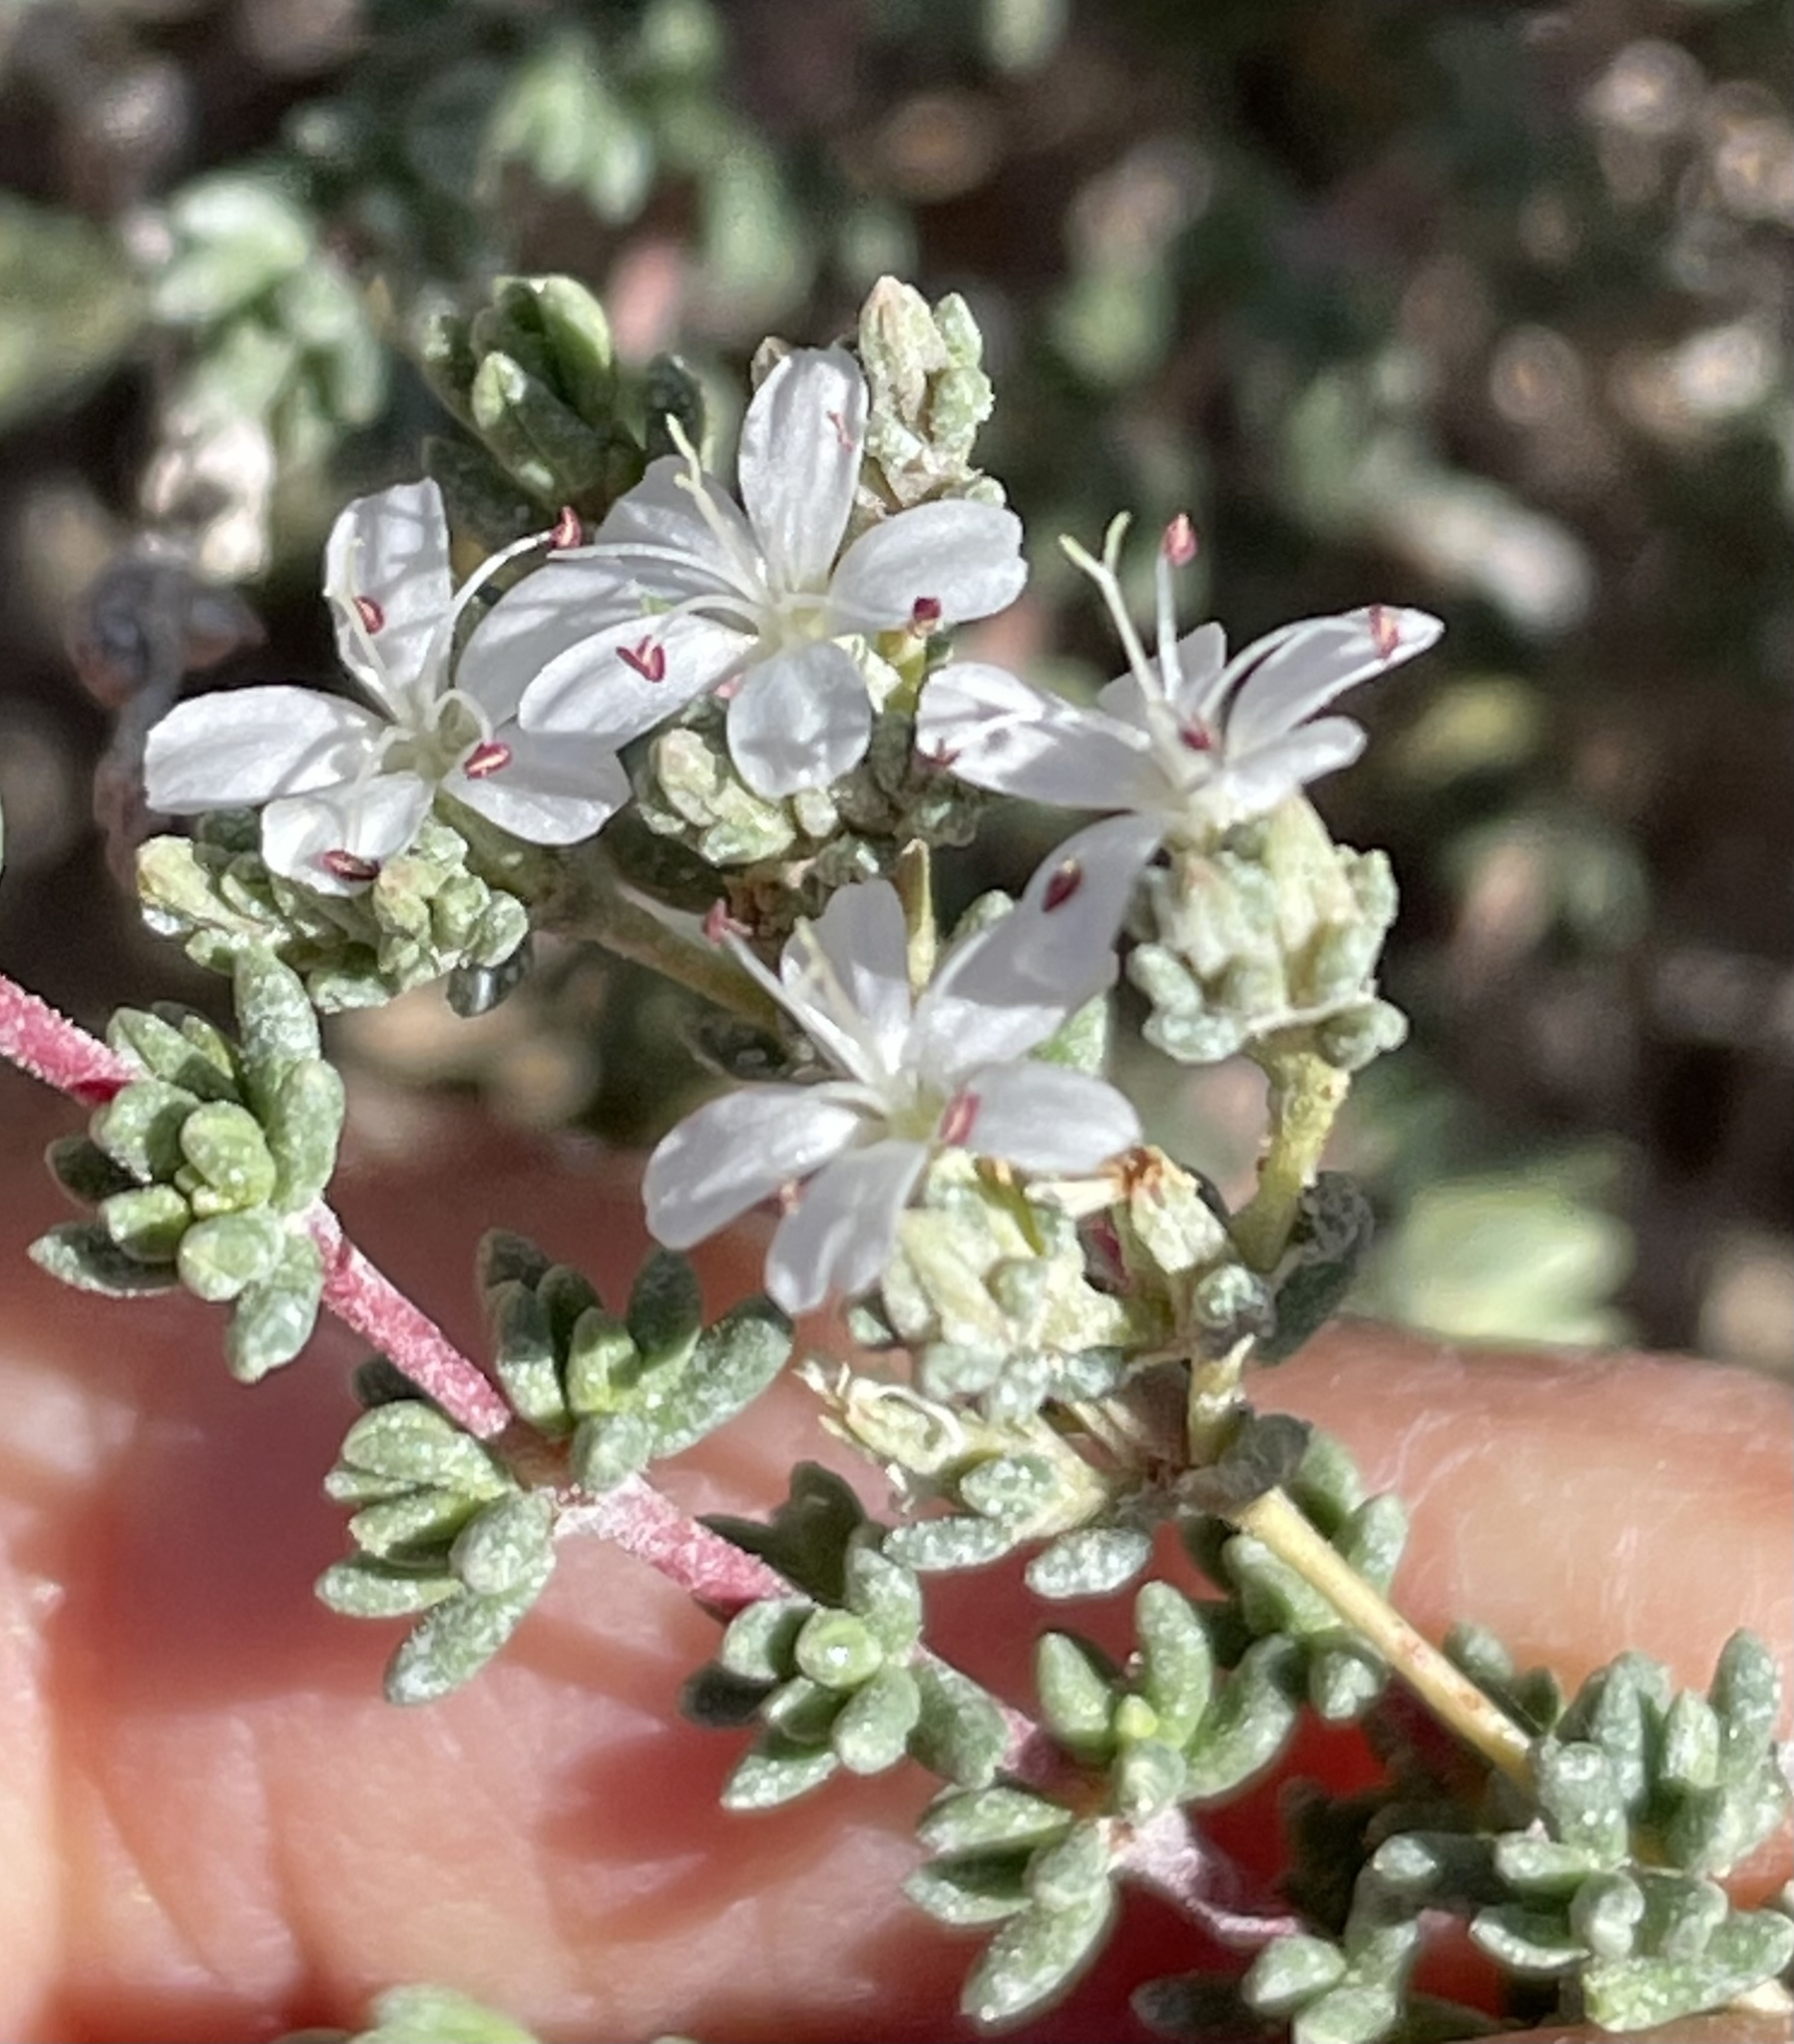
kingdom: Plantae
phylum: Tracheophyta
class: Magnoliopsida
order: Caryophyllales
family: Frankeniaceae
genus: Frankenia
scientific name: Frankenia palmeri
